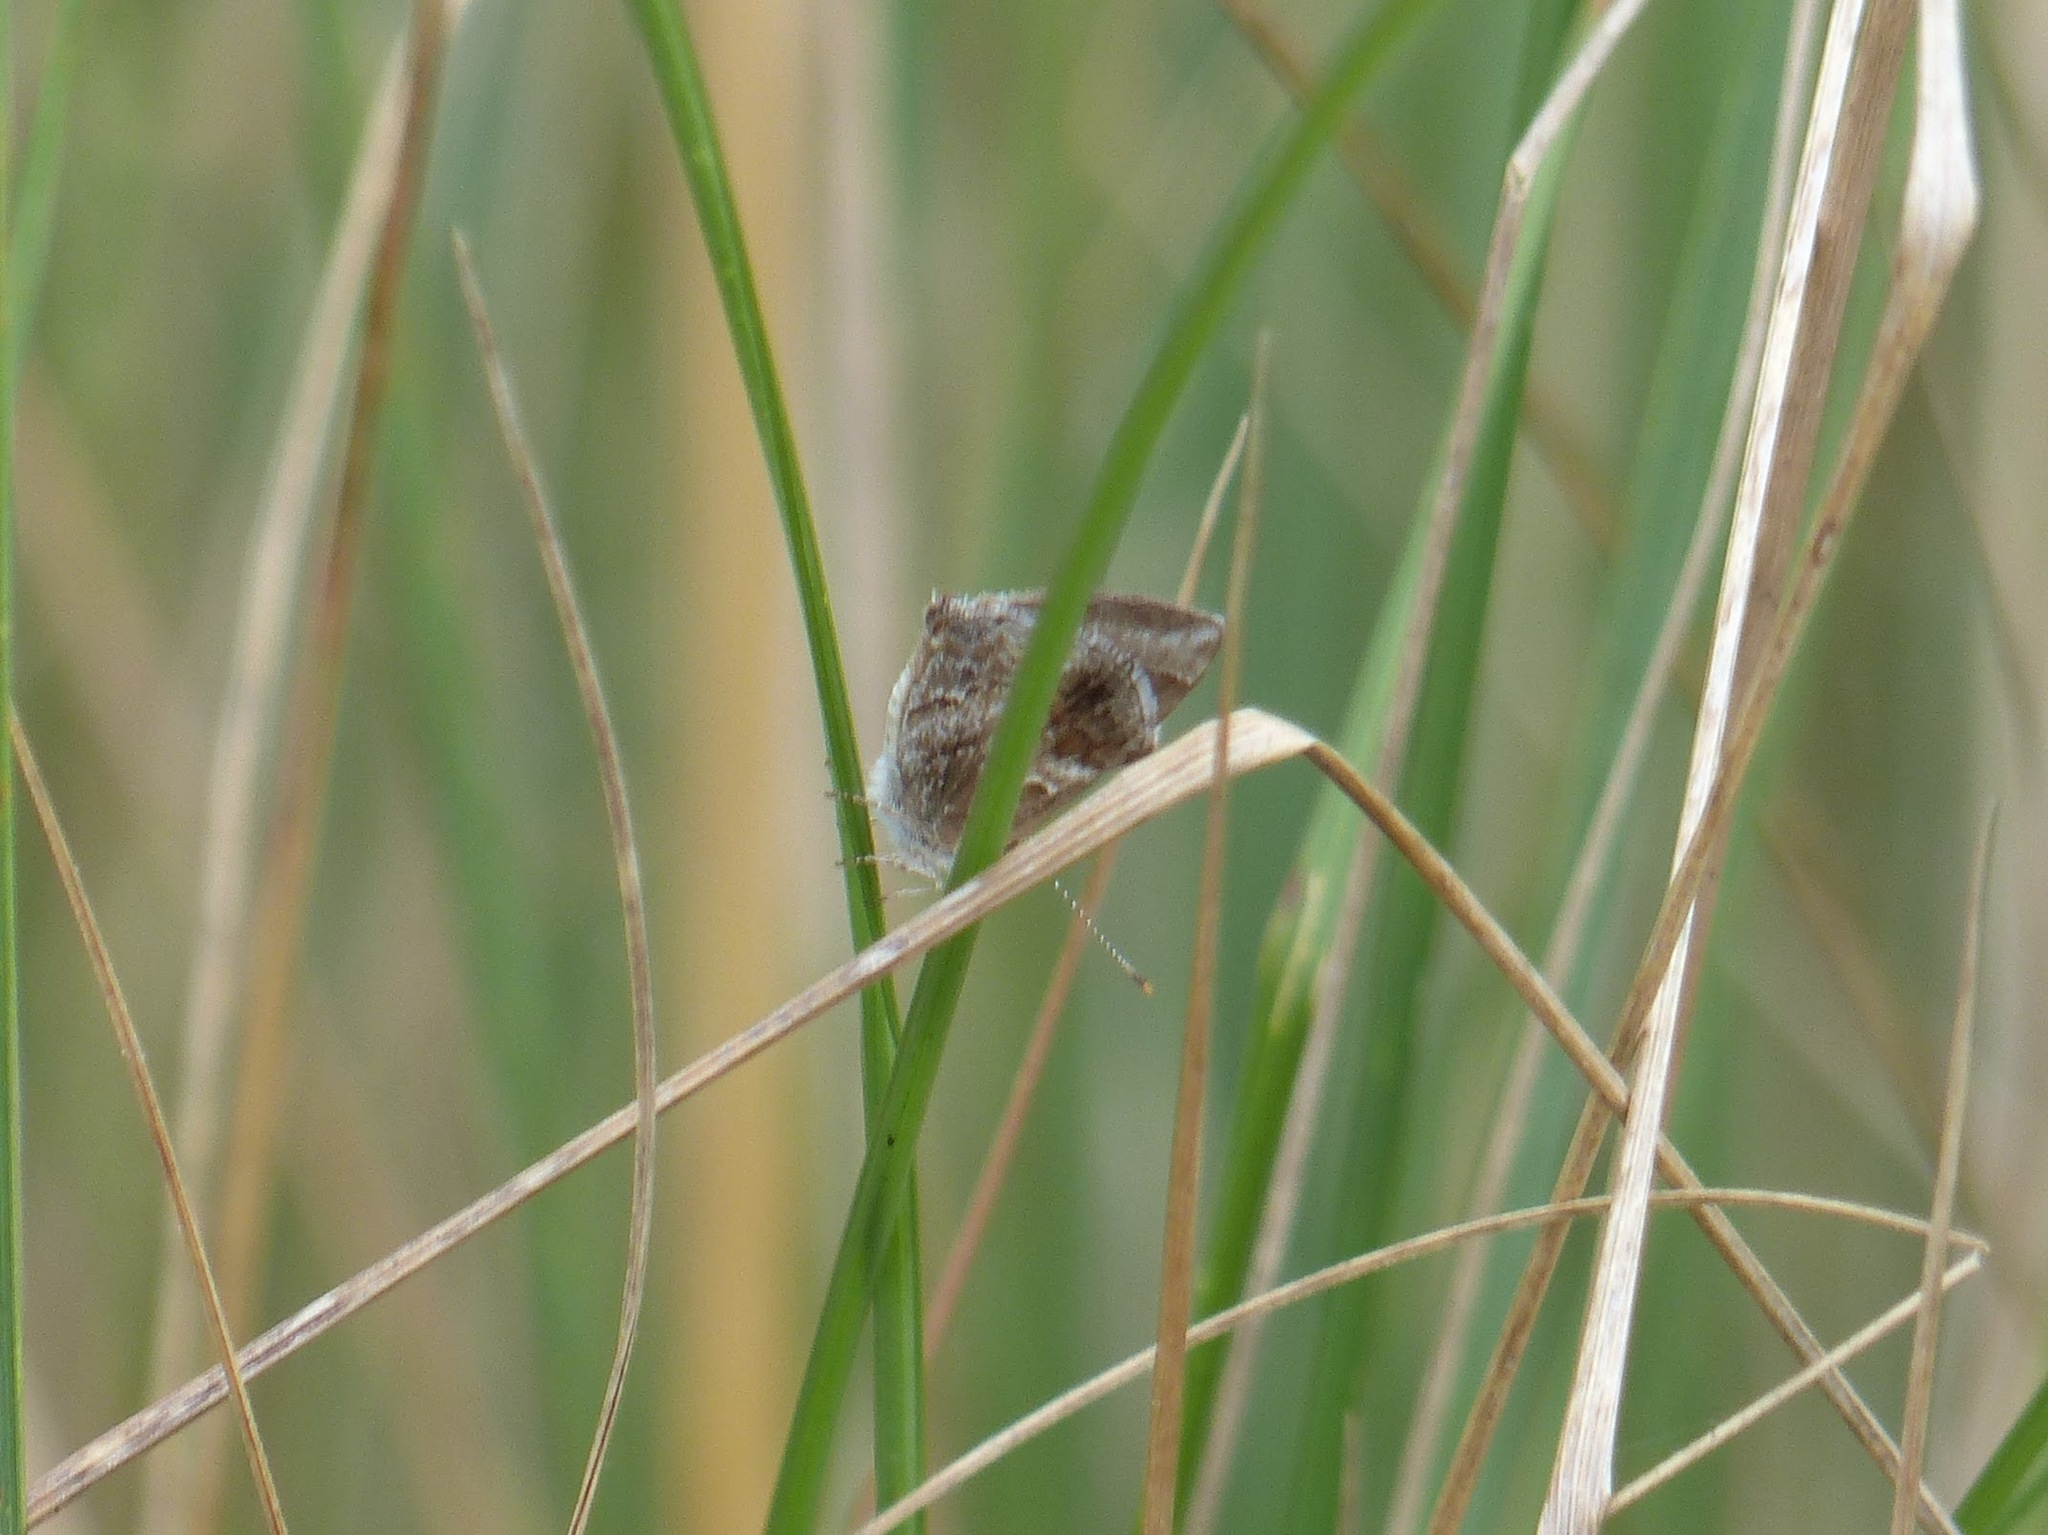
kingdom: Animalia
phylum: Arthropoda
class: Insecta
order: Lepidoptera
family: Lycaenidae
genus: Strymon
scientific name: Strymon bazochii
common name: Lantana scrub-hairstreak
